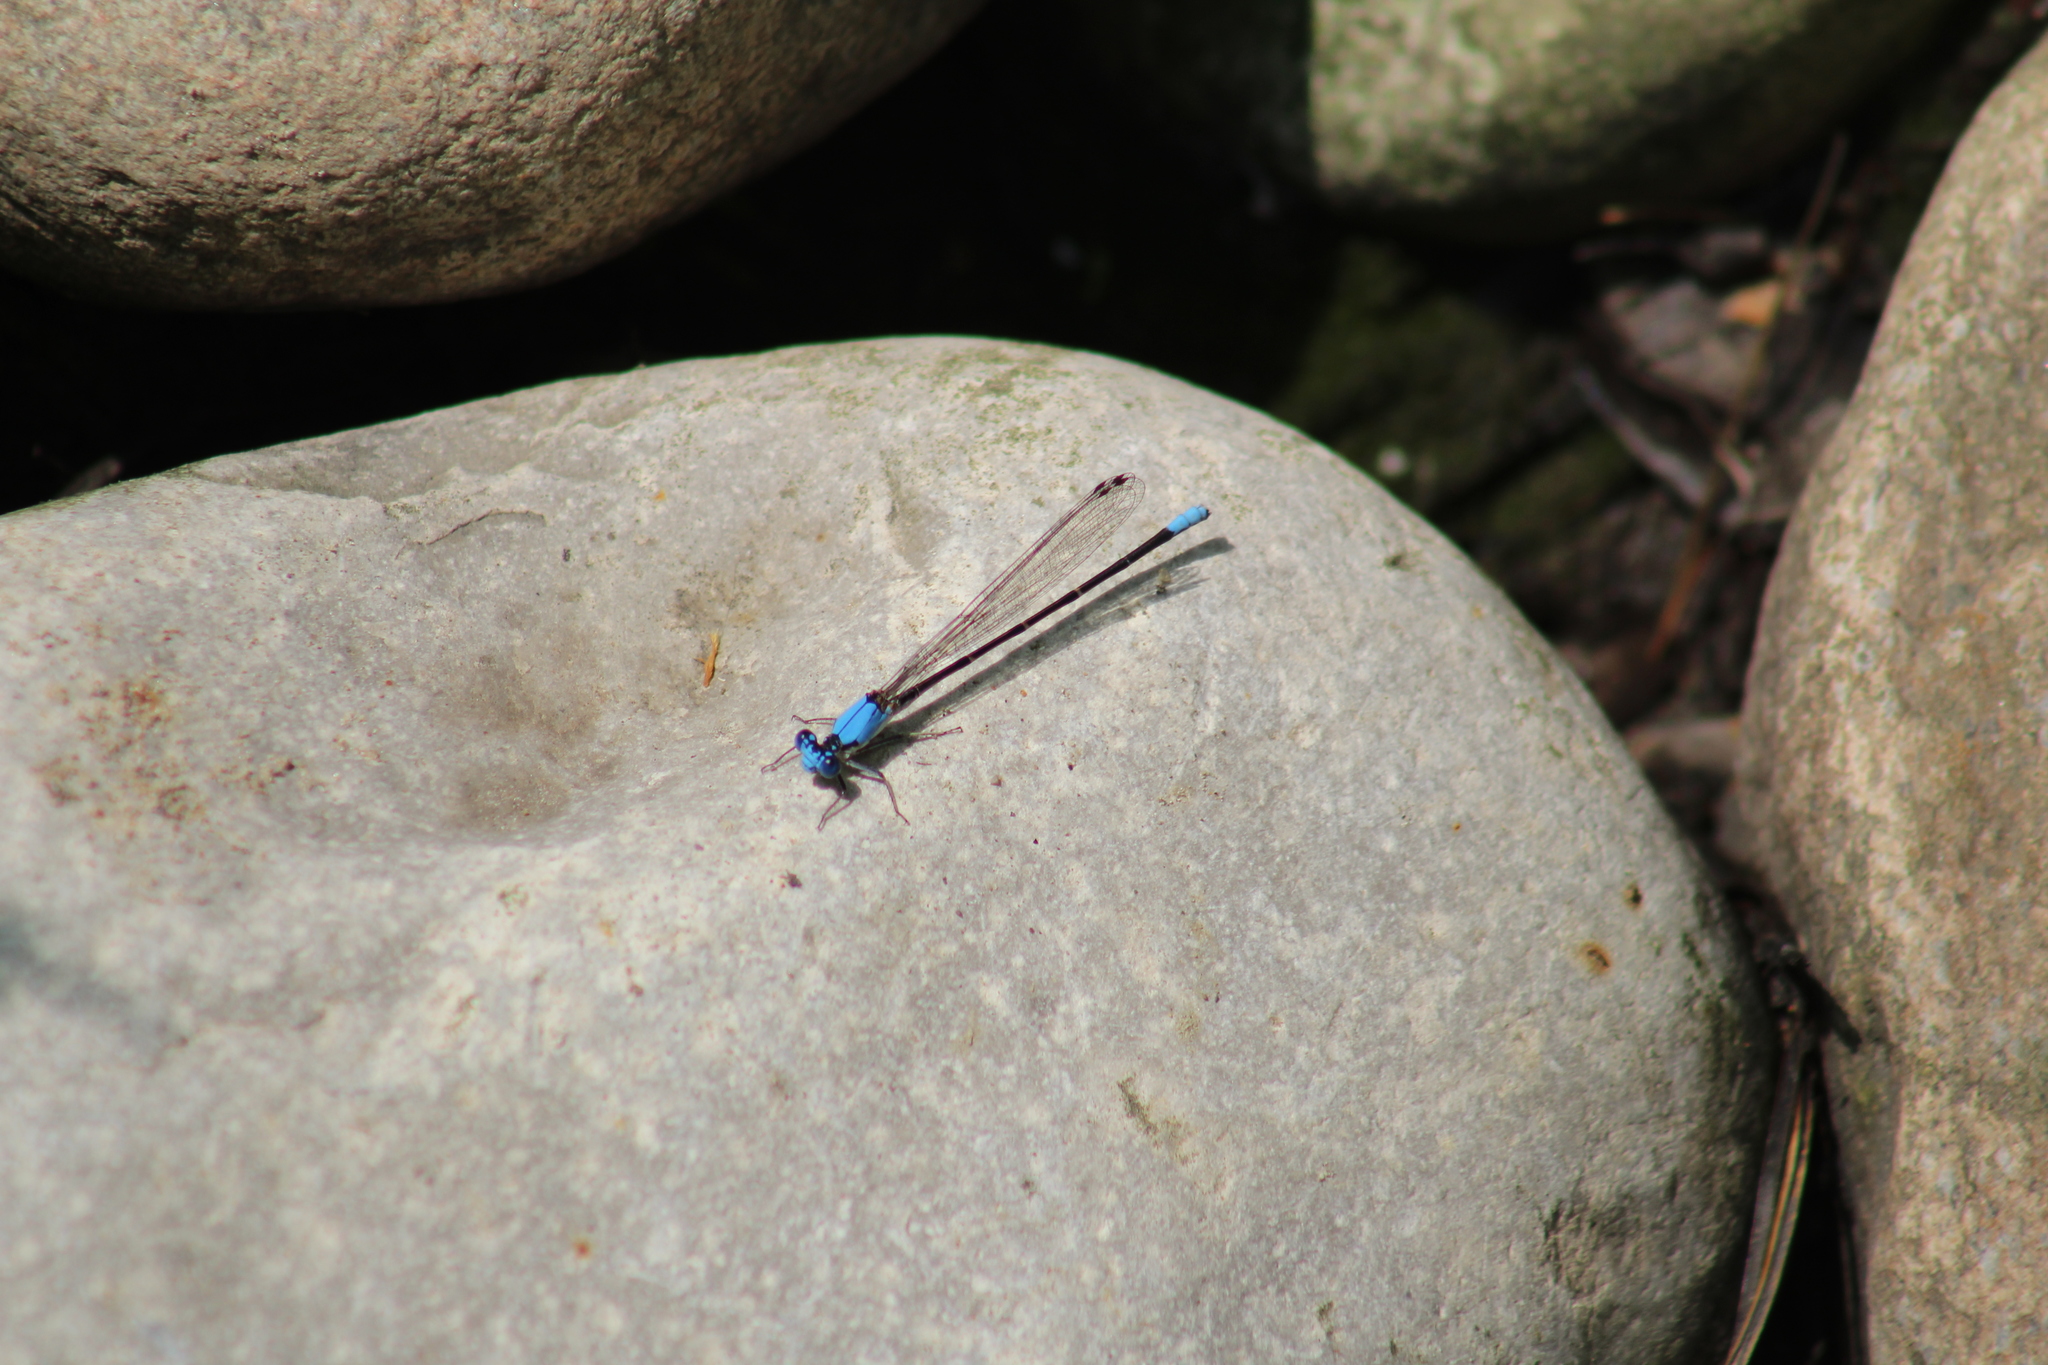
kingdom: Animalia
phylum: Arthropoda
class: Insecta
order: Odonata
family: Coenagrionidae
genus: Argia
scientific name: Argia apicalis
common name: Blue-fronted dancer
